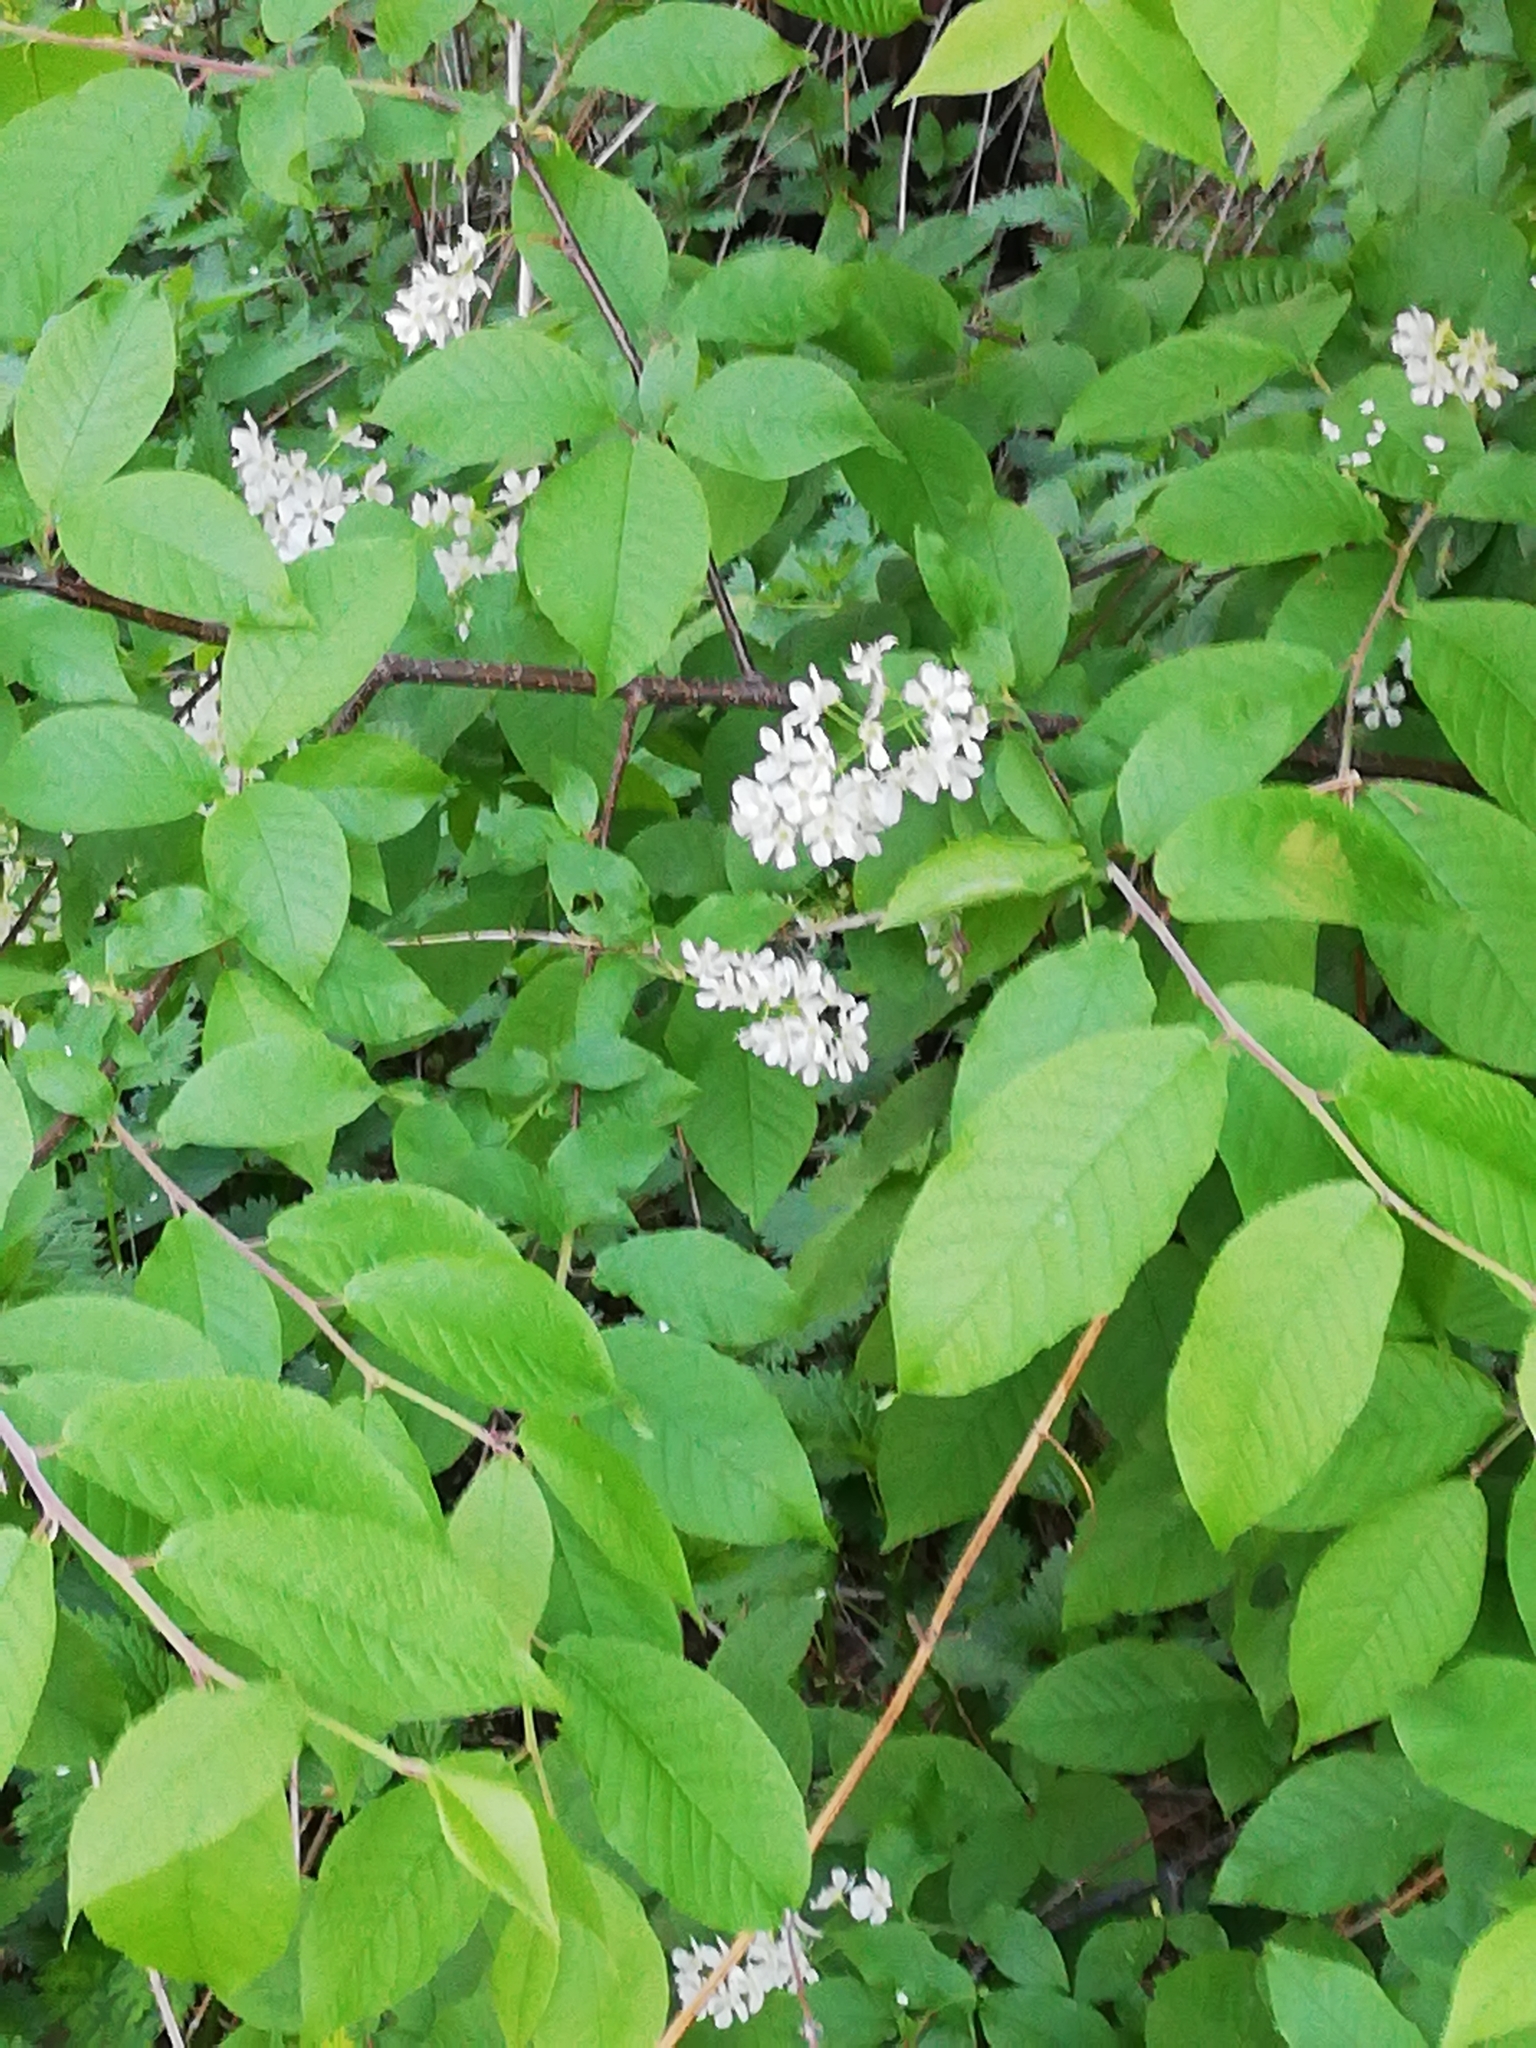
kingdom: Plantae
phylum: Tracheophyta
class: Magnoliopsida
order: Rosales
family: Rosaceae
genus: Prunus
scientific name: Prunus padus
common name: Bird cherry
